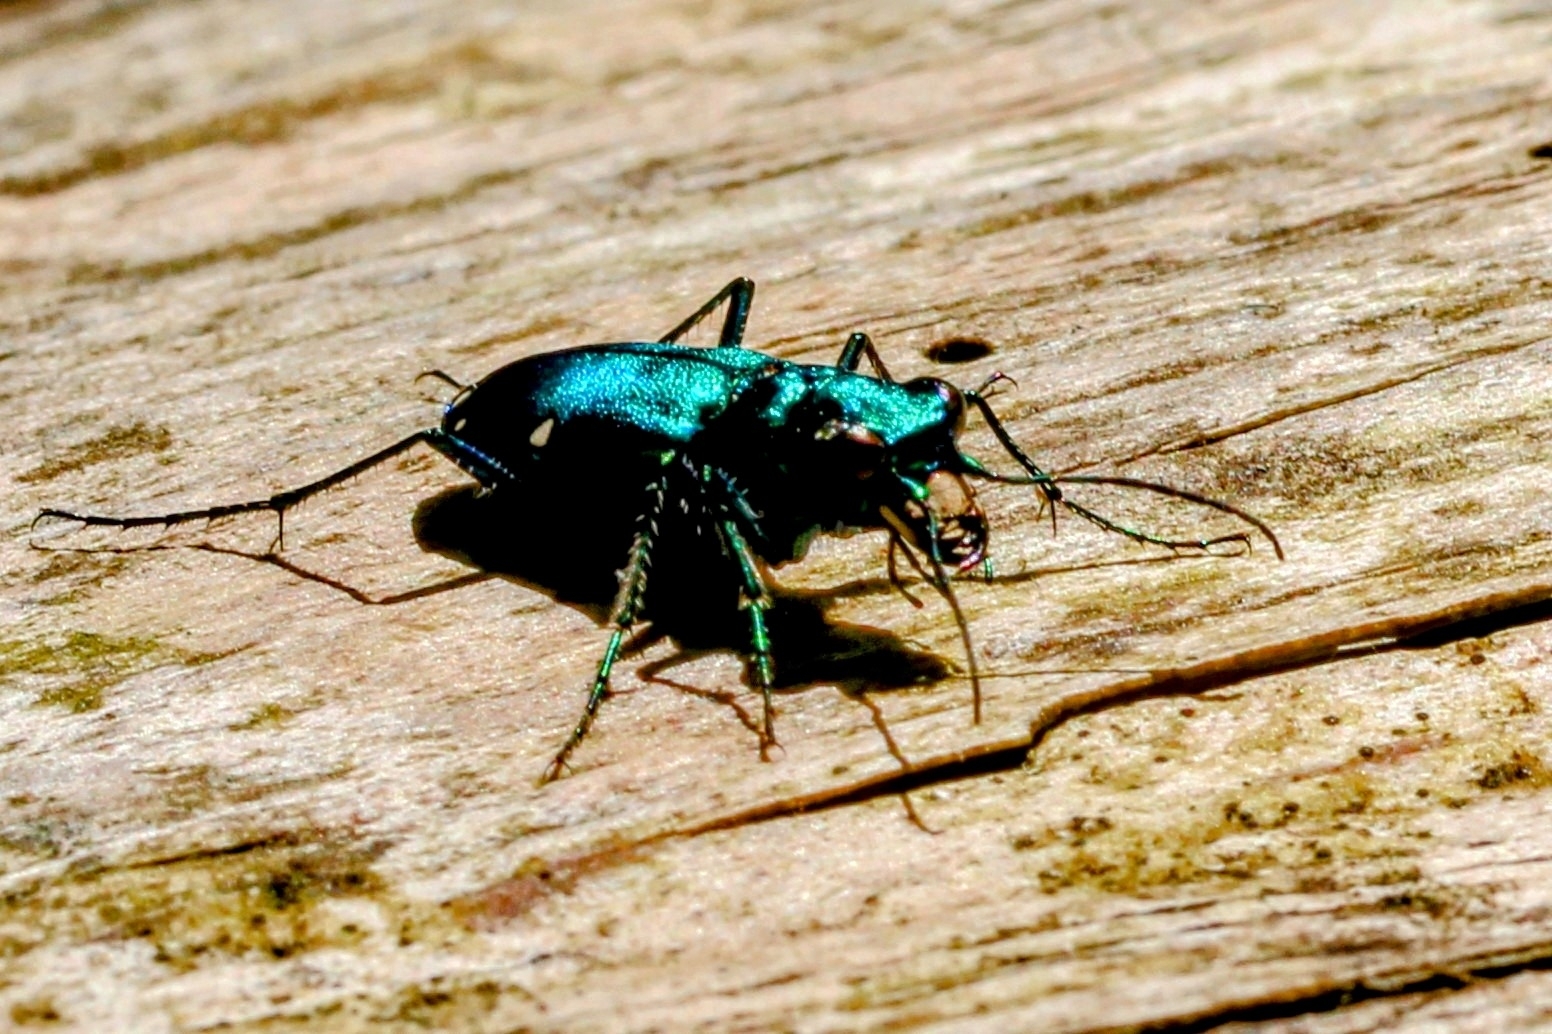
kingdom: Animalia
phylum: Arthropoda
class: Insecta
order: Coleoptera
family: Carabidae
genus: Cicindela
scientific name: Cicindela sexguttata
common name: Six-spotted tiger beetle
